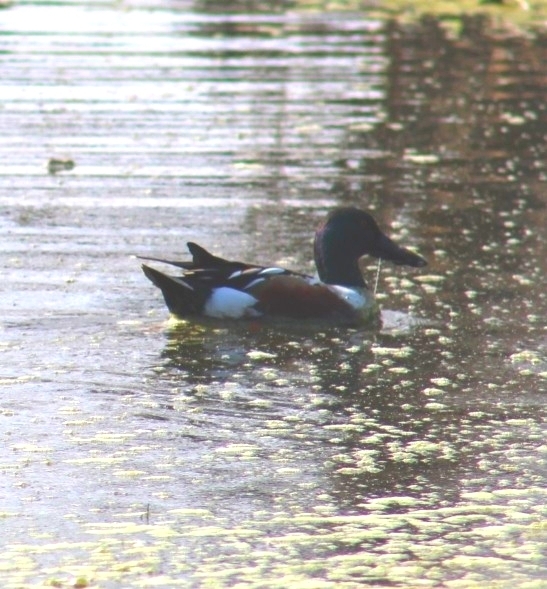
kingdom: Animalia
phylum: Chordata
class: Aves
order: Anseriformes
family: Anatidae
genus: Spatula
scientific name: Spatula clypeata
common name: Northern shoveler
